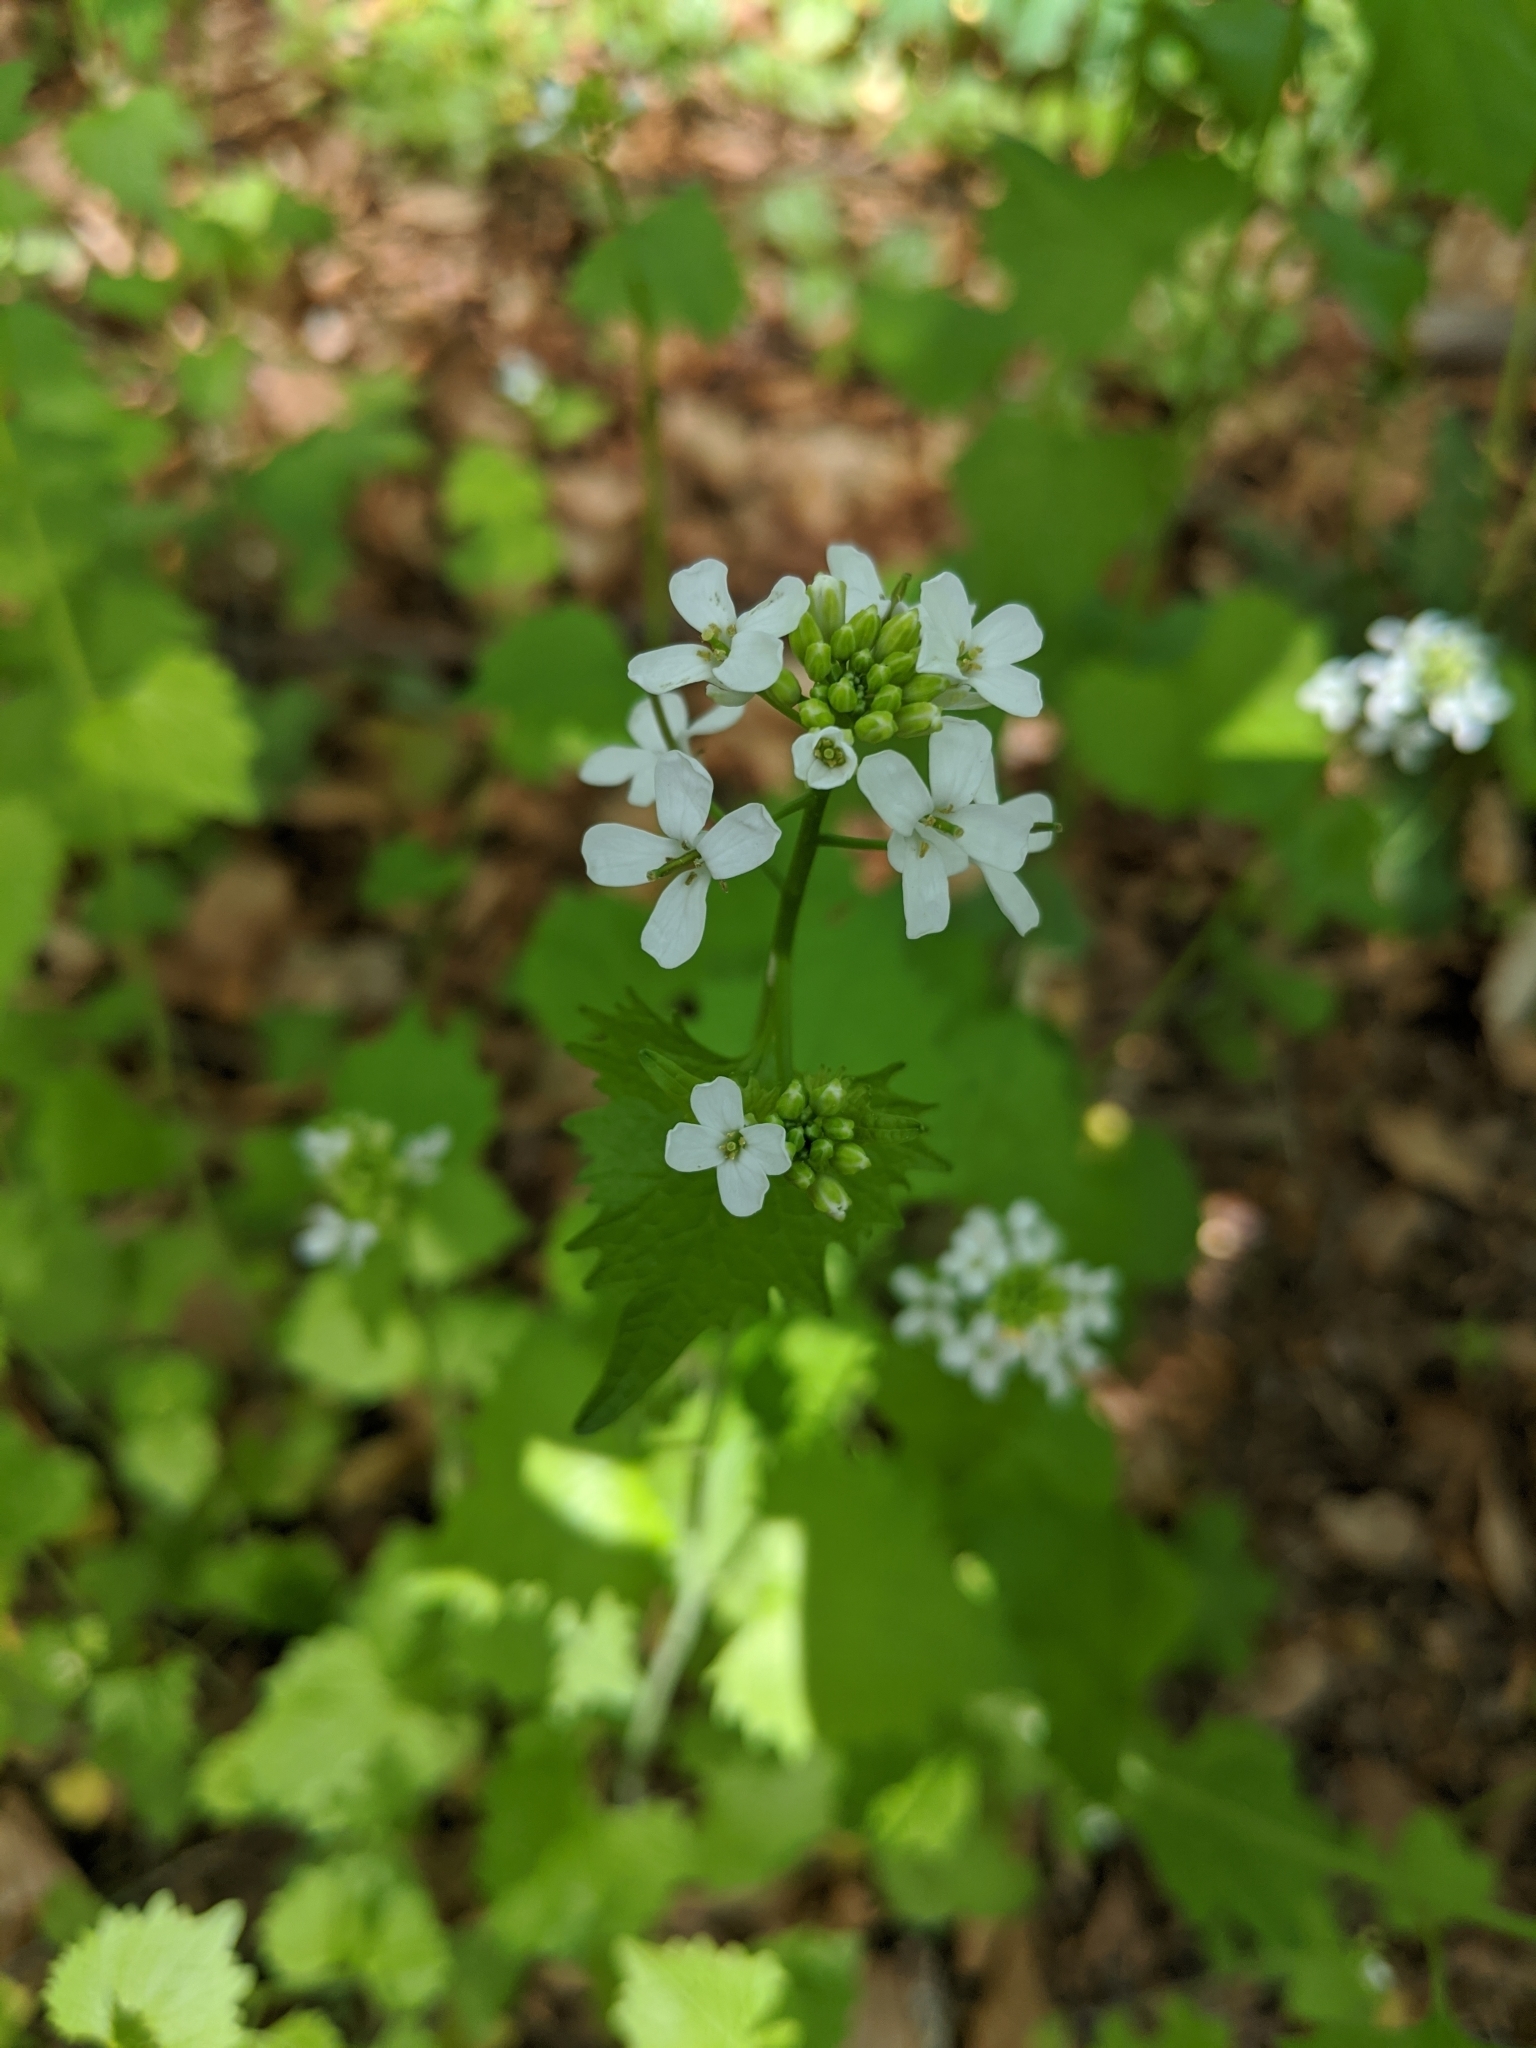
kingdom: Plantae
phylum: Tracheophyta
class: Magnoliopsida
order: Brassicales
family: Brassicaceae
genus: Alliaria
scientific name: Alliaria petiolata
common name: Garlic mustard
